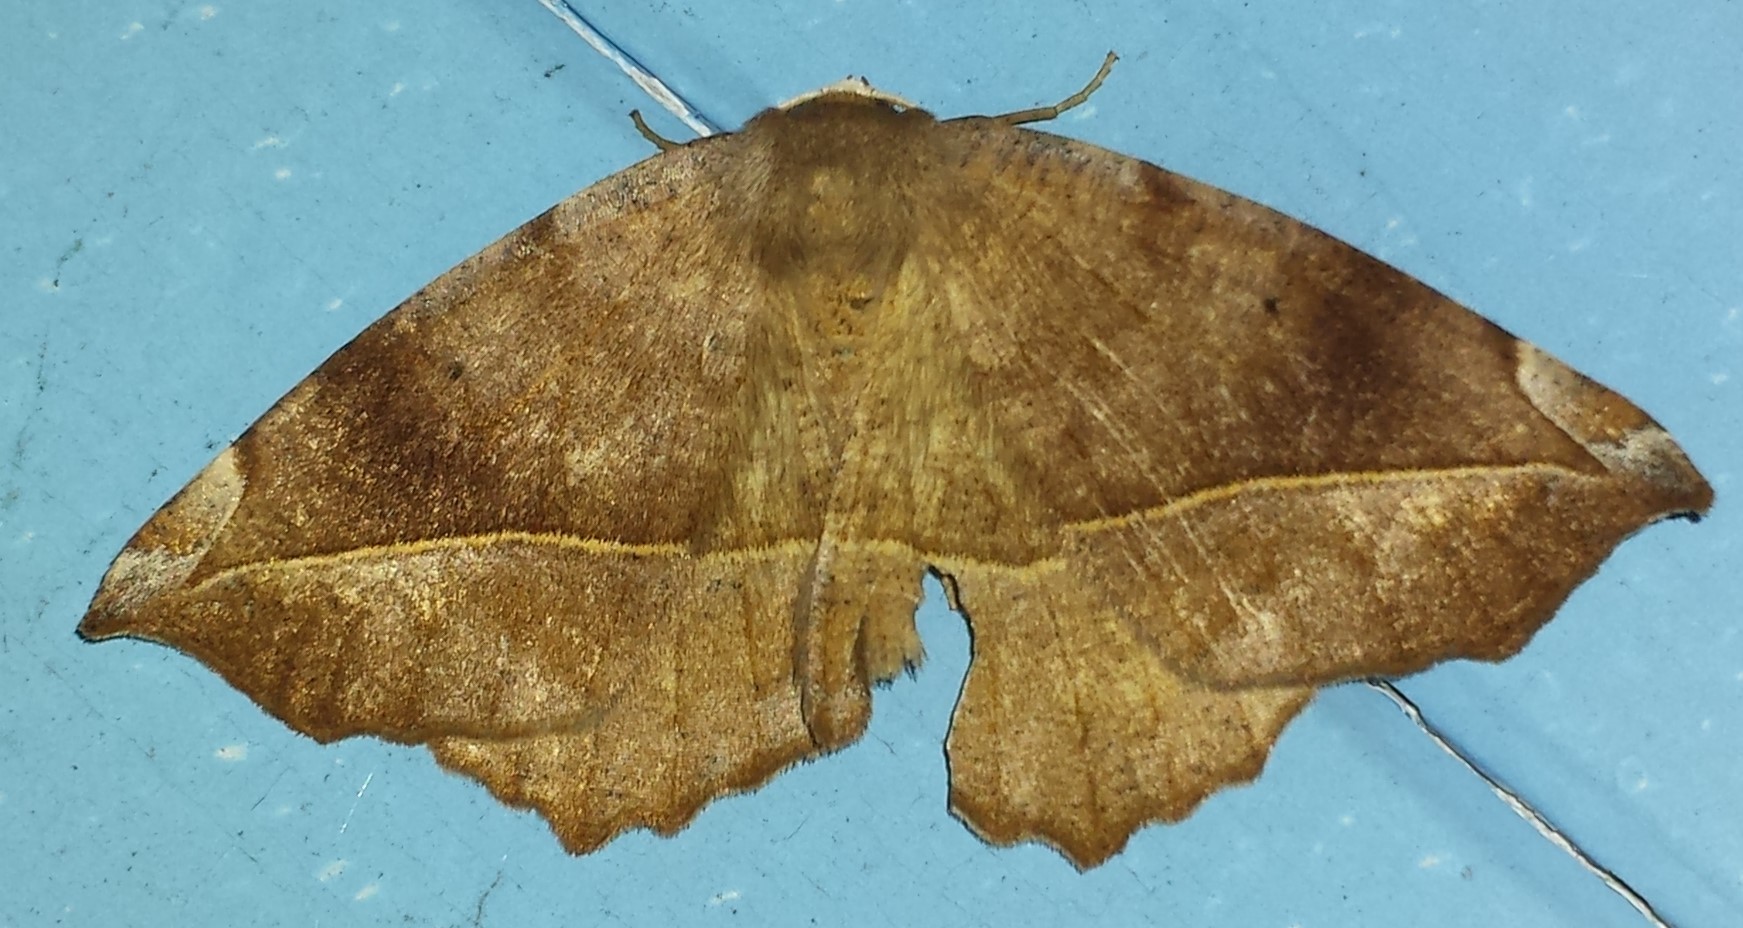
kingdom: Animalia
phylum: Arthropoda
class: Insecta
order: Lepidoptera
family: Geometridae
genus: Eutrapela
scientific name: Eutrapela clemataria
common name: Curved-toothed geometer
